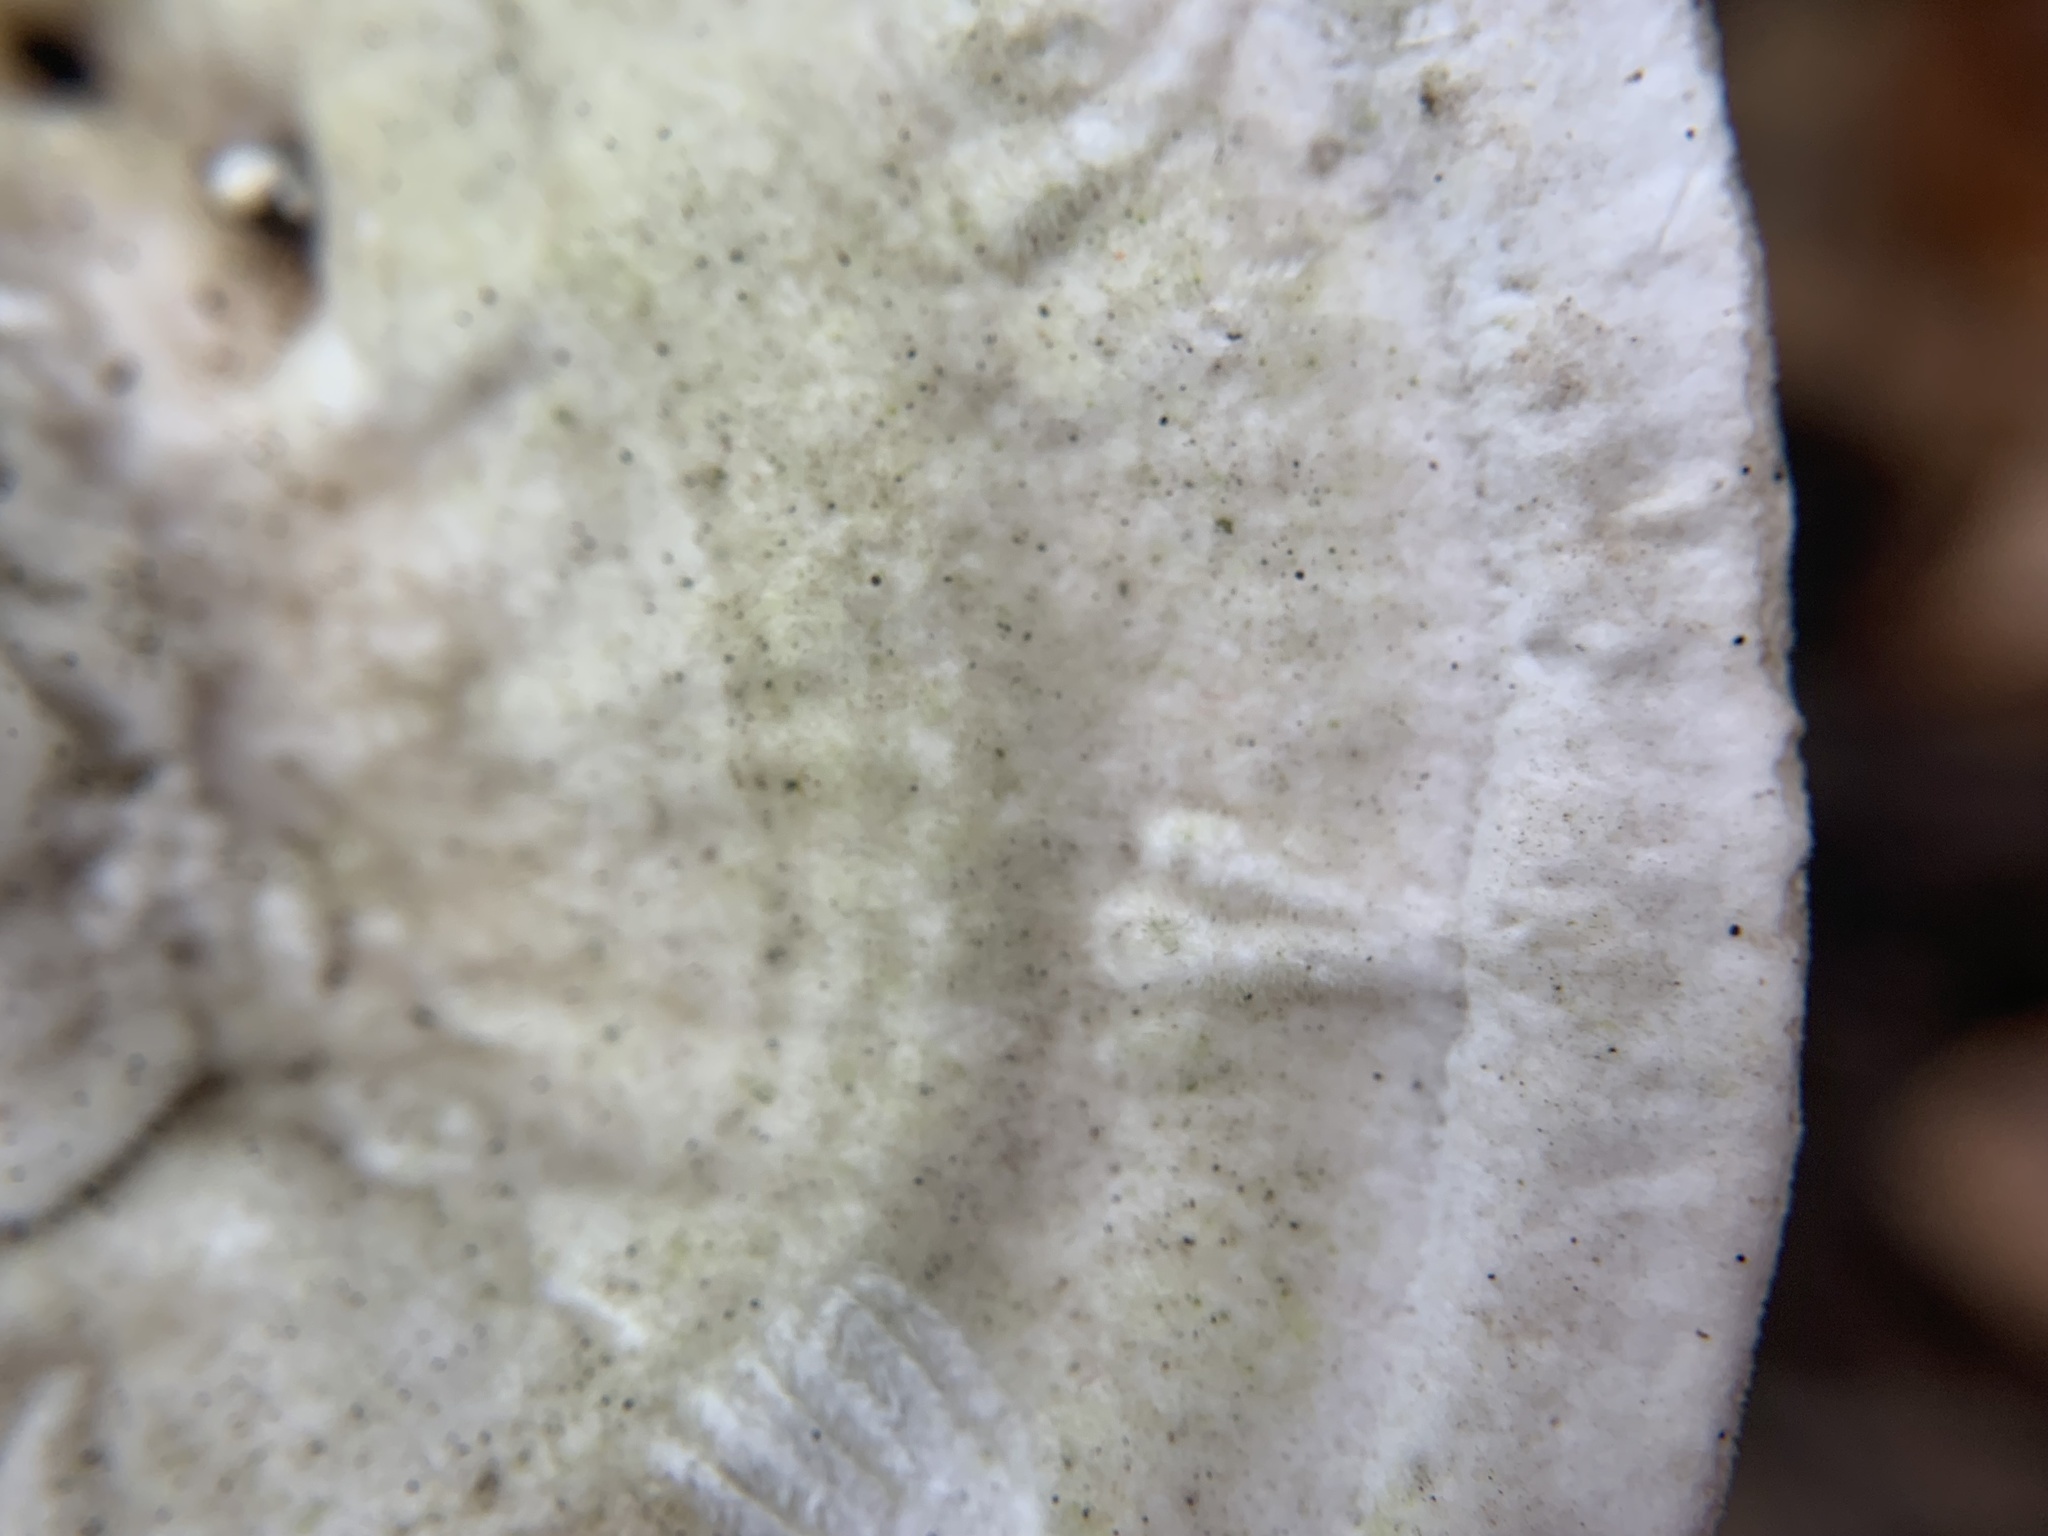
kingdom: Fungi
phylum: Basidiomycota
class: Agaricomycetes
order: Polyporales
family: Polyporaceae
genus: Trametes
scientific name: Trametes gibbosa
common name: Lumpy bracket
